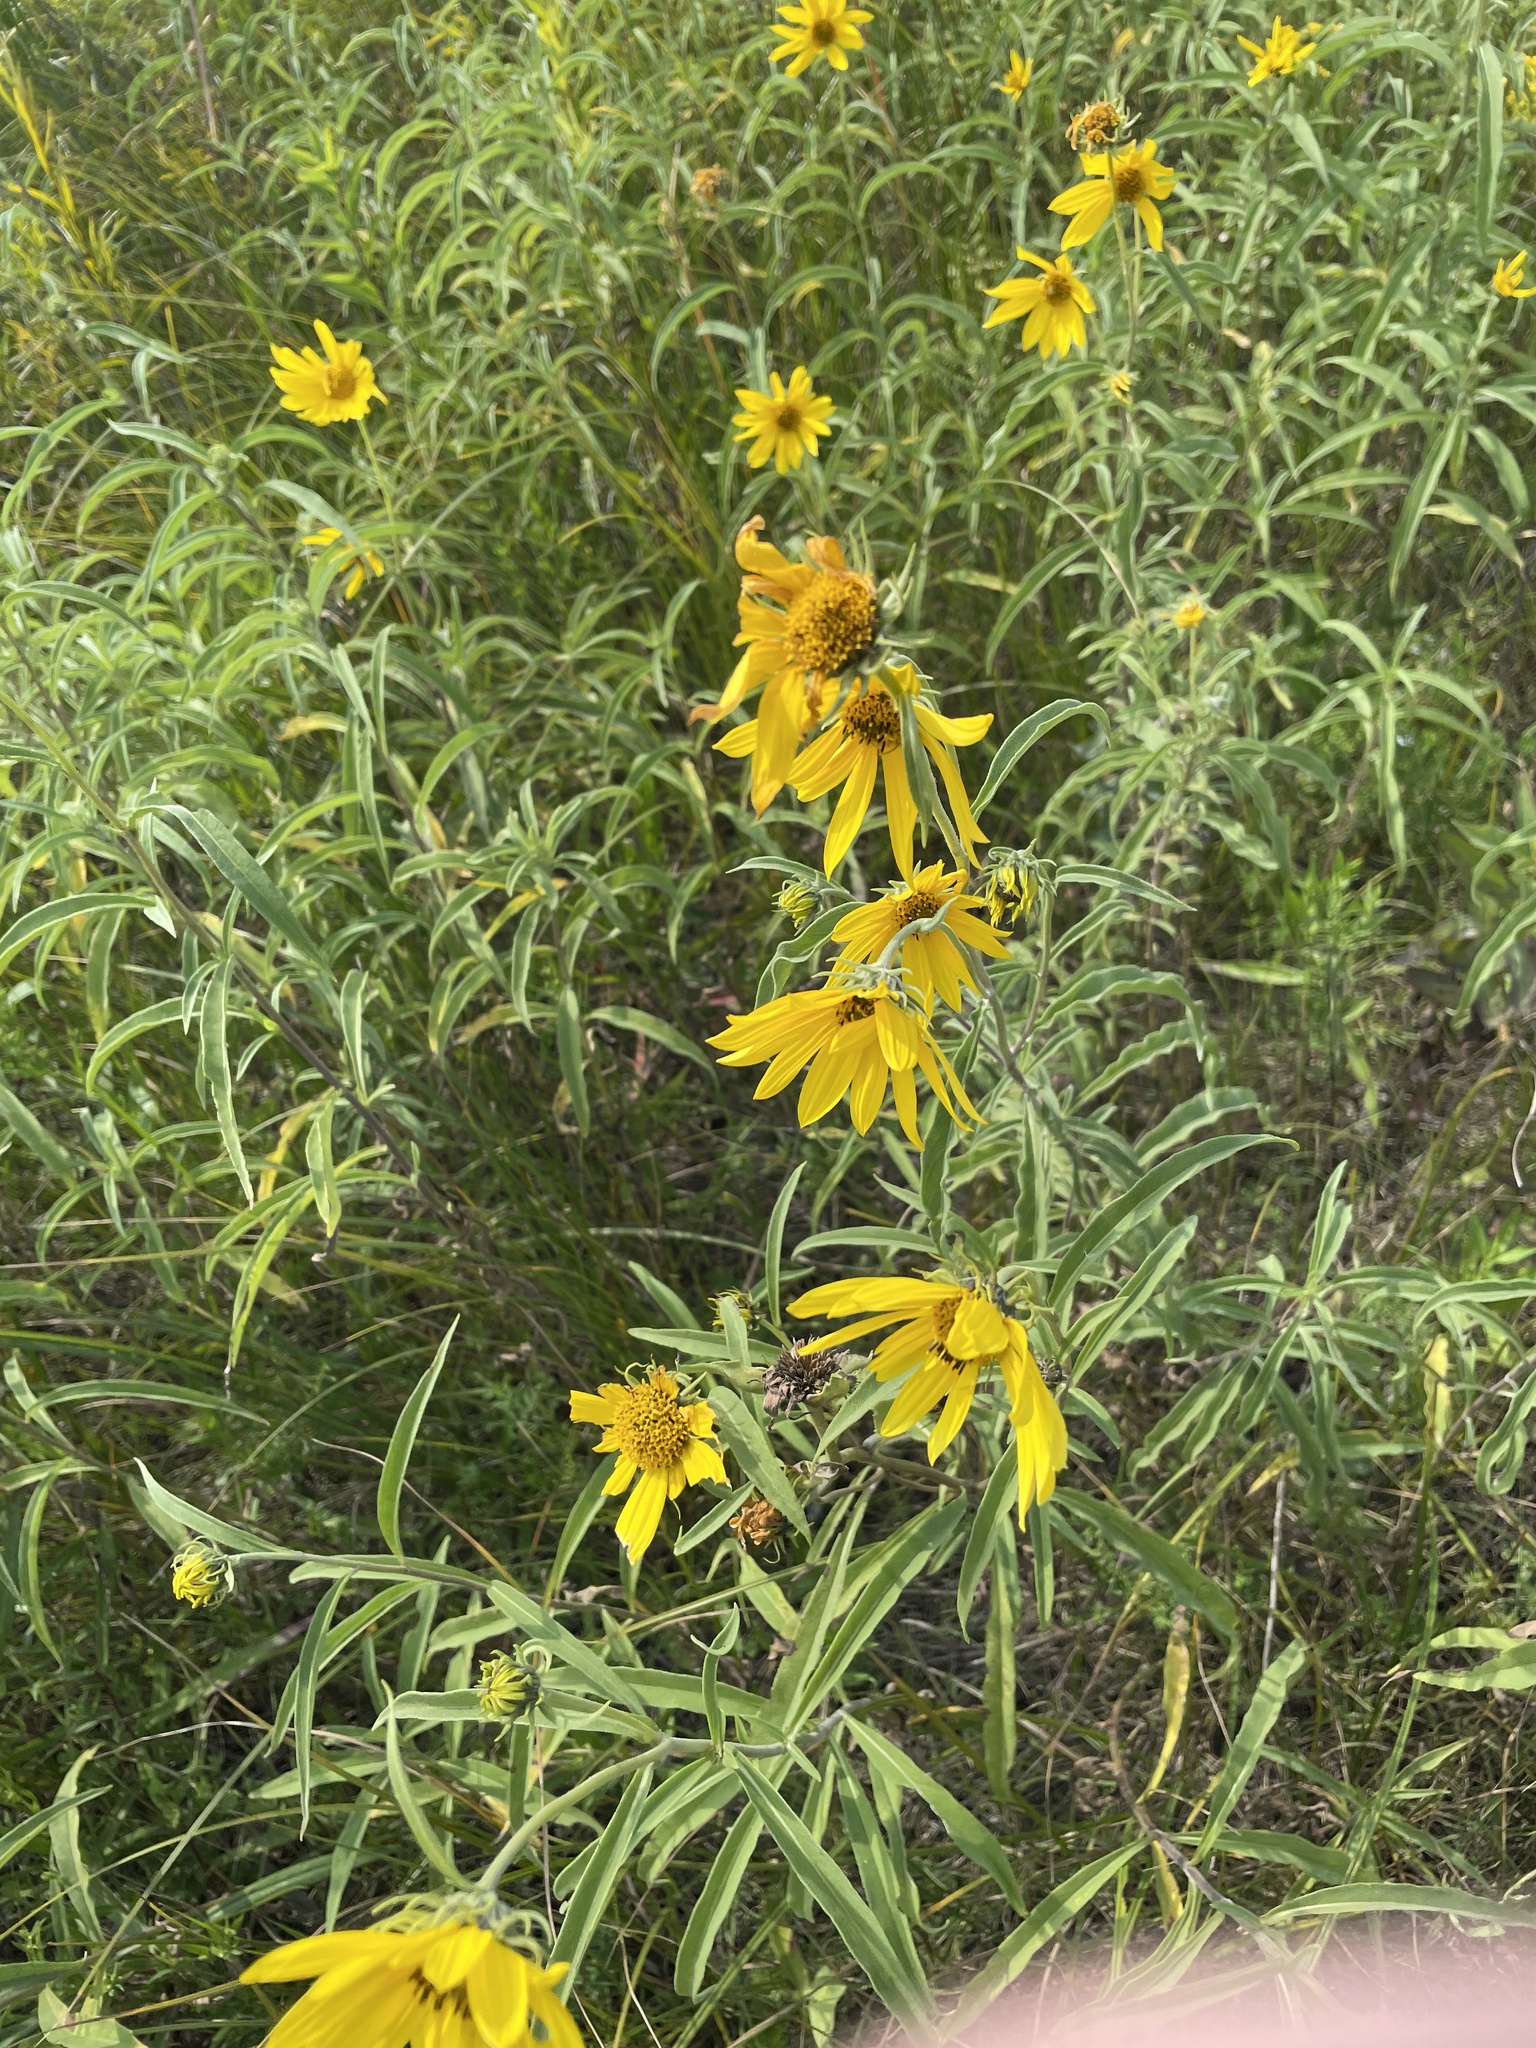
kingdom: Plantae
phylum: Tracheophyta
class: Magnoliopsida
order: Asterales
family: Asteraceae
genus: Helianthus
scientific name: Helianthus maximiliani
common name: Maximilian's sunflower
